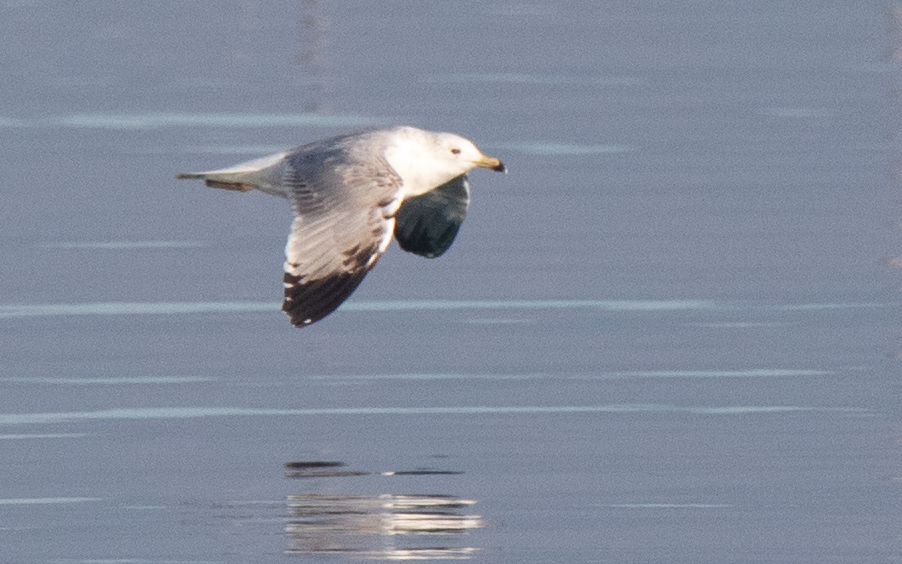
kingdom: Animalia
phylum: Chordata
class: Aves
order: Charadriiformes
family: Laridae
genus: Larus
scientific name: Larus michahellis
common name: Yellow-legged gull
